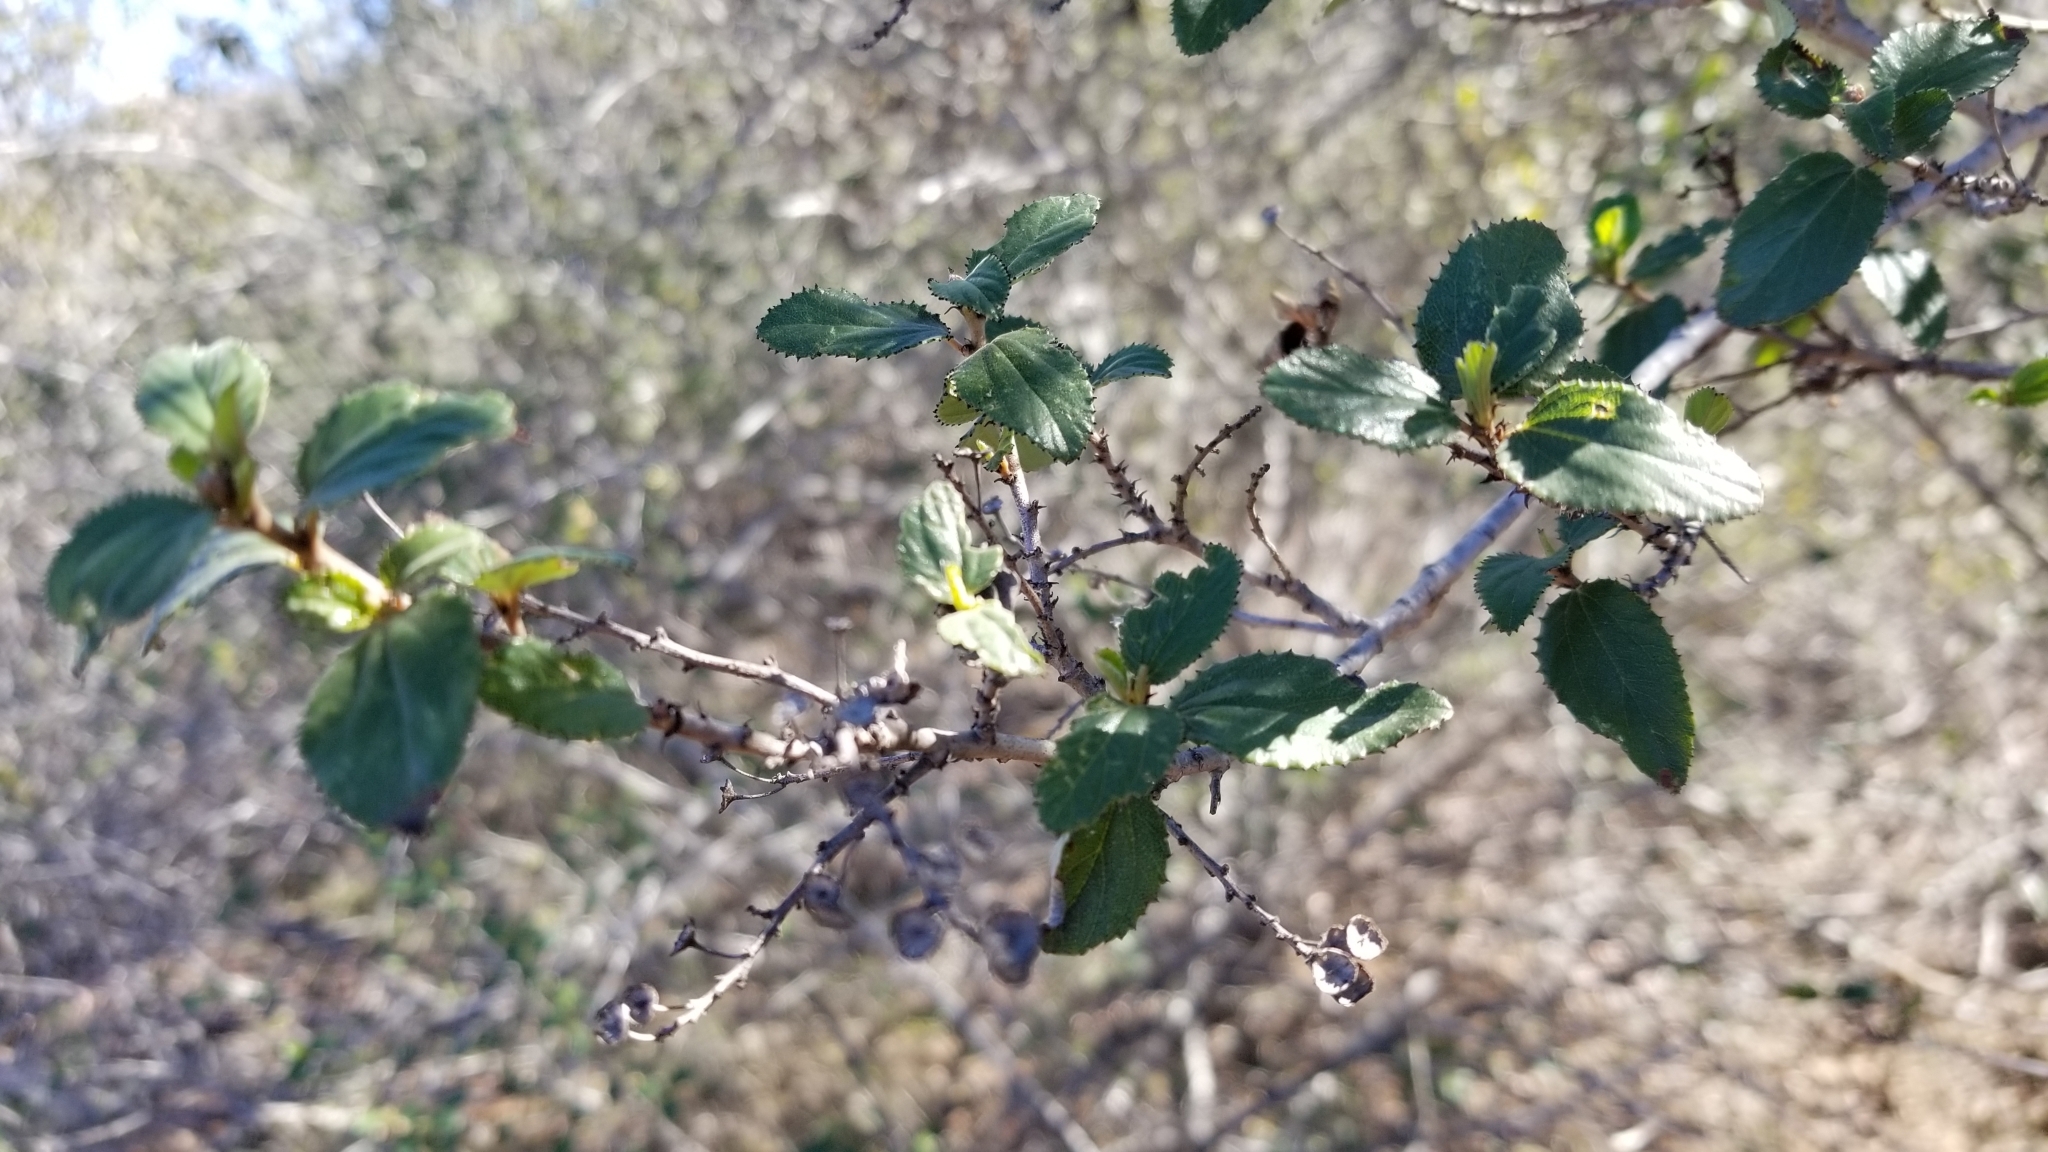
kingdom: Plantae
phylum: Tracheophyta
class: Magnoliopsida
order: Rosales
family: Rhamnaceae
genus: Ceanothus
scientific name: Ceanothus tomentosus
